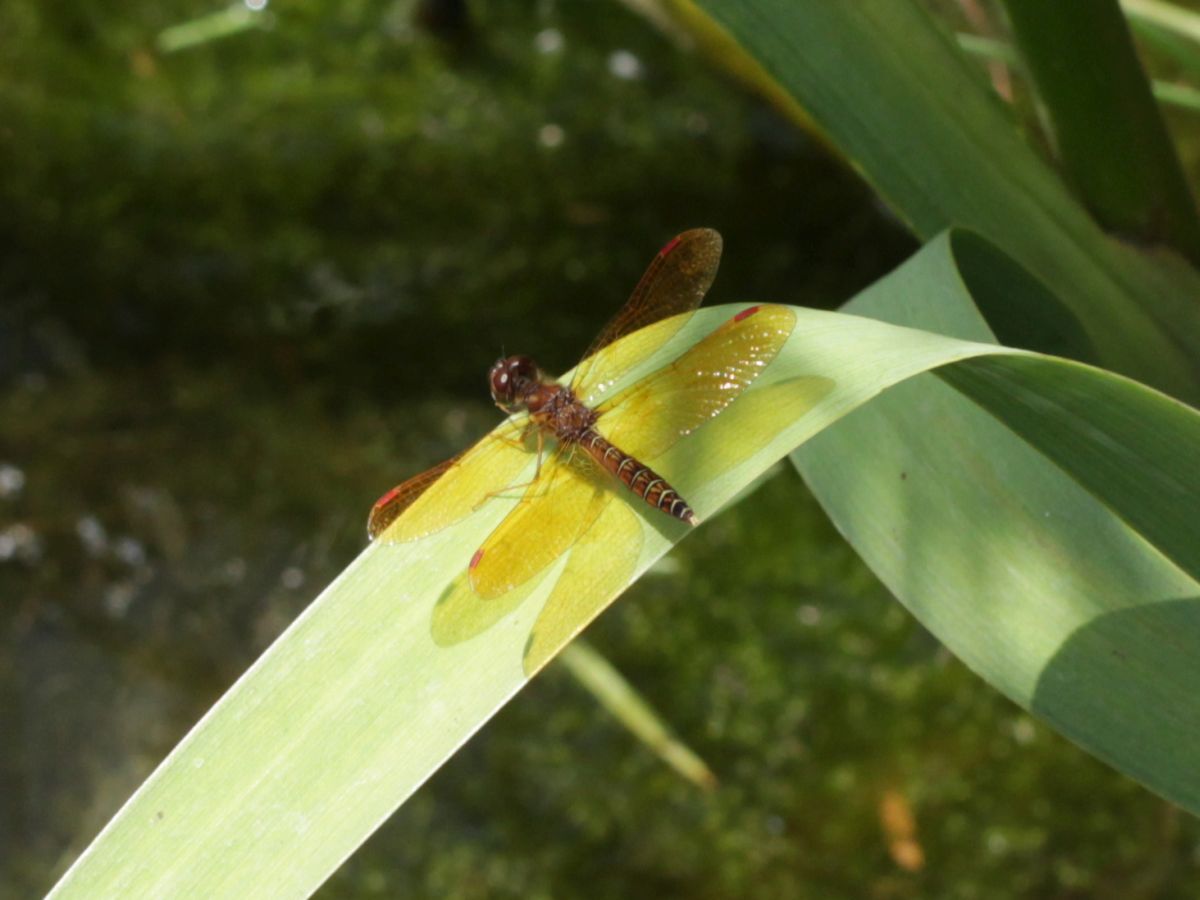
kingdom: Animalia
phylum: Arthropoda
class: Insecta
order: Odonata
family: Libellulidae
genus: Perithemis
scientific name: Perithemis tenera
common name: Eastern amberwing
